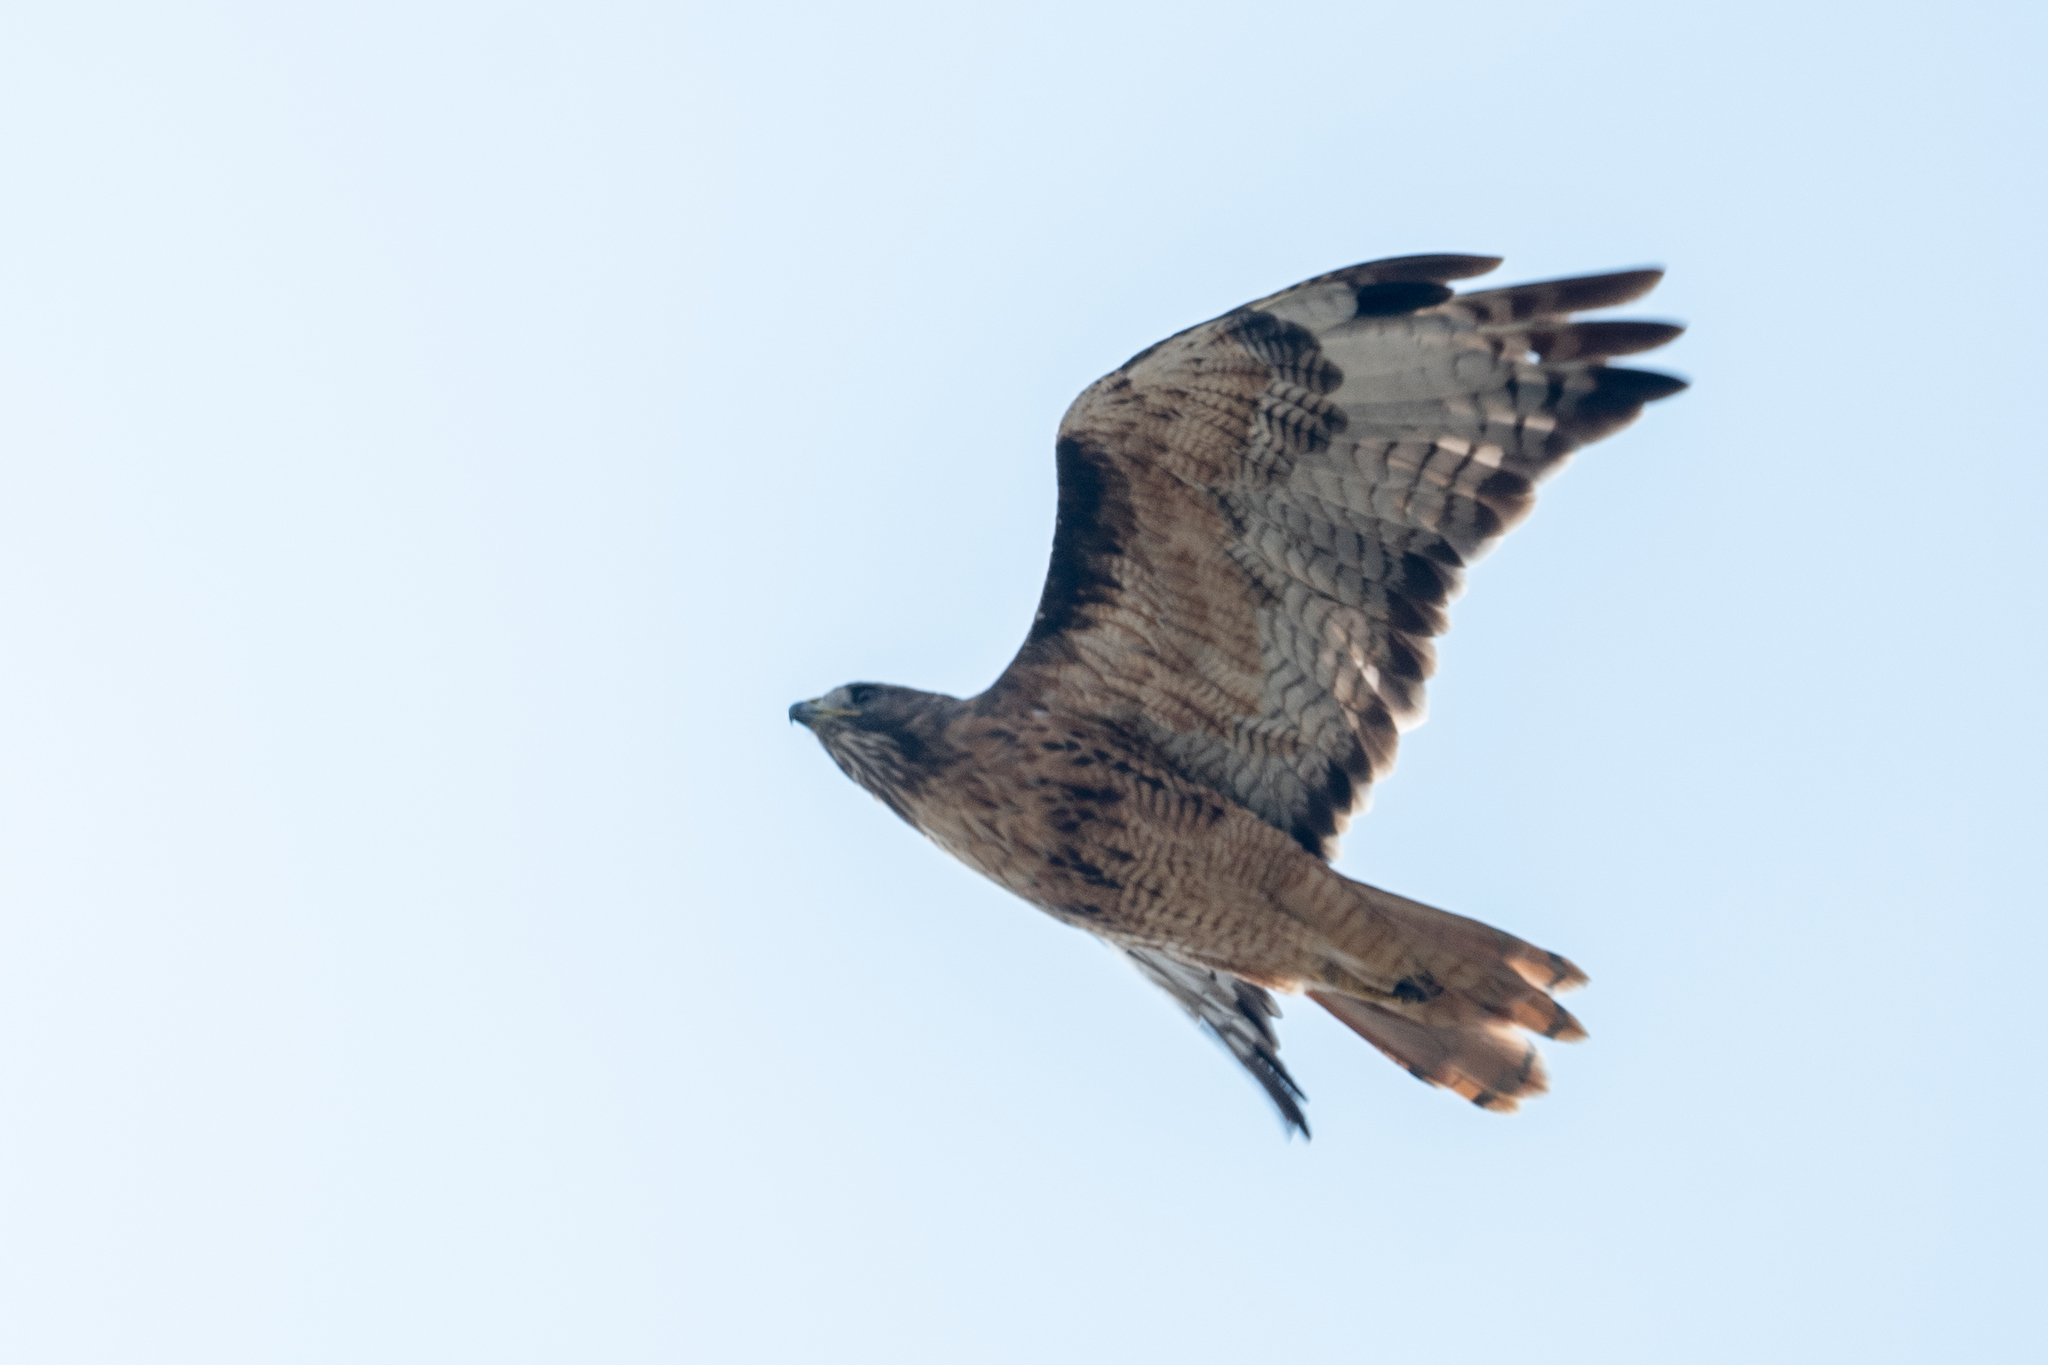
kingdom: Animalia
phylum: Chordata
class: Aves
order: Accipitriformes
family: Accipitridae
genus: Buteo
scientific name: Buteo jamaicensis
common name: Red-tailed hawk
